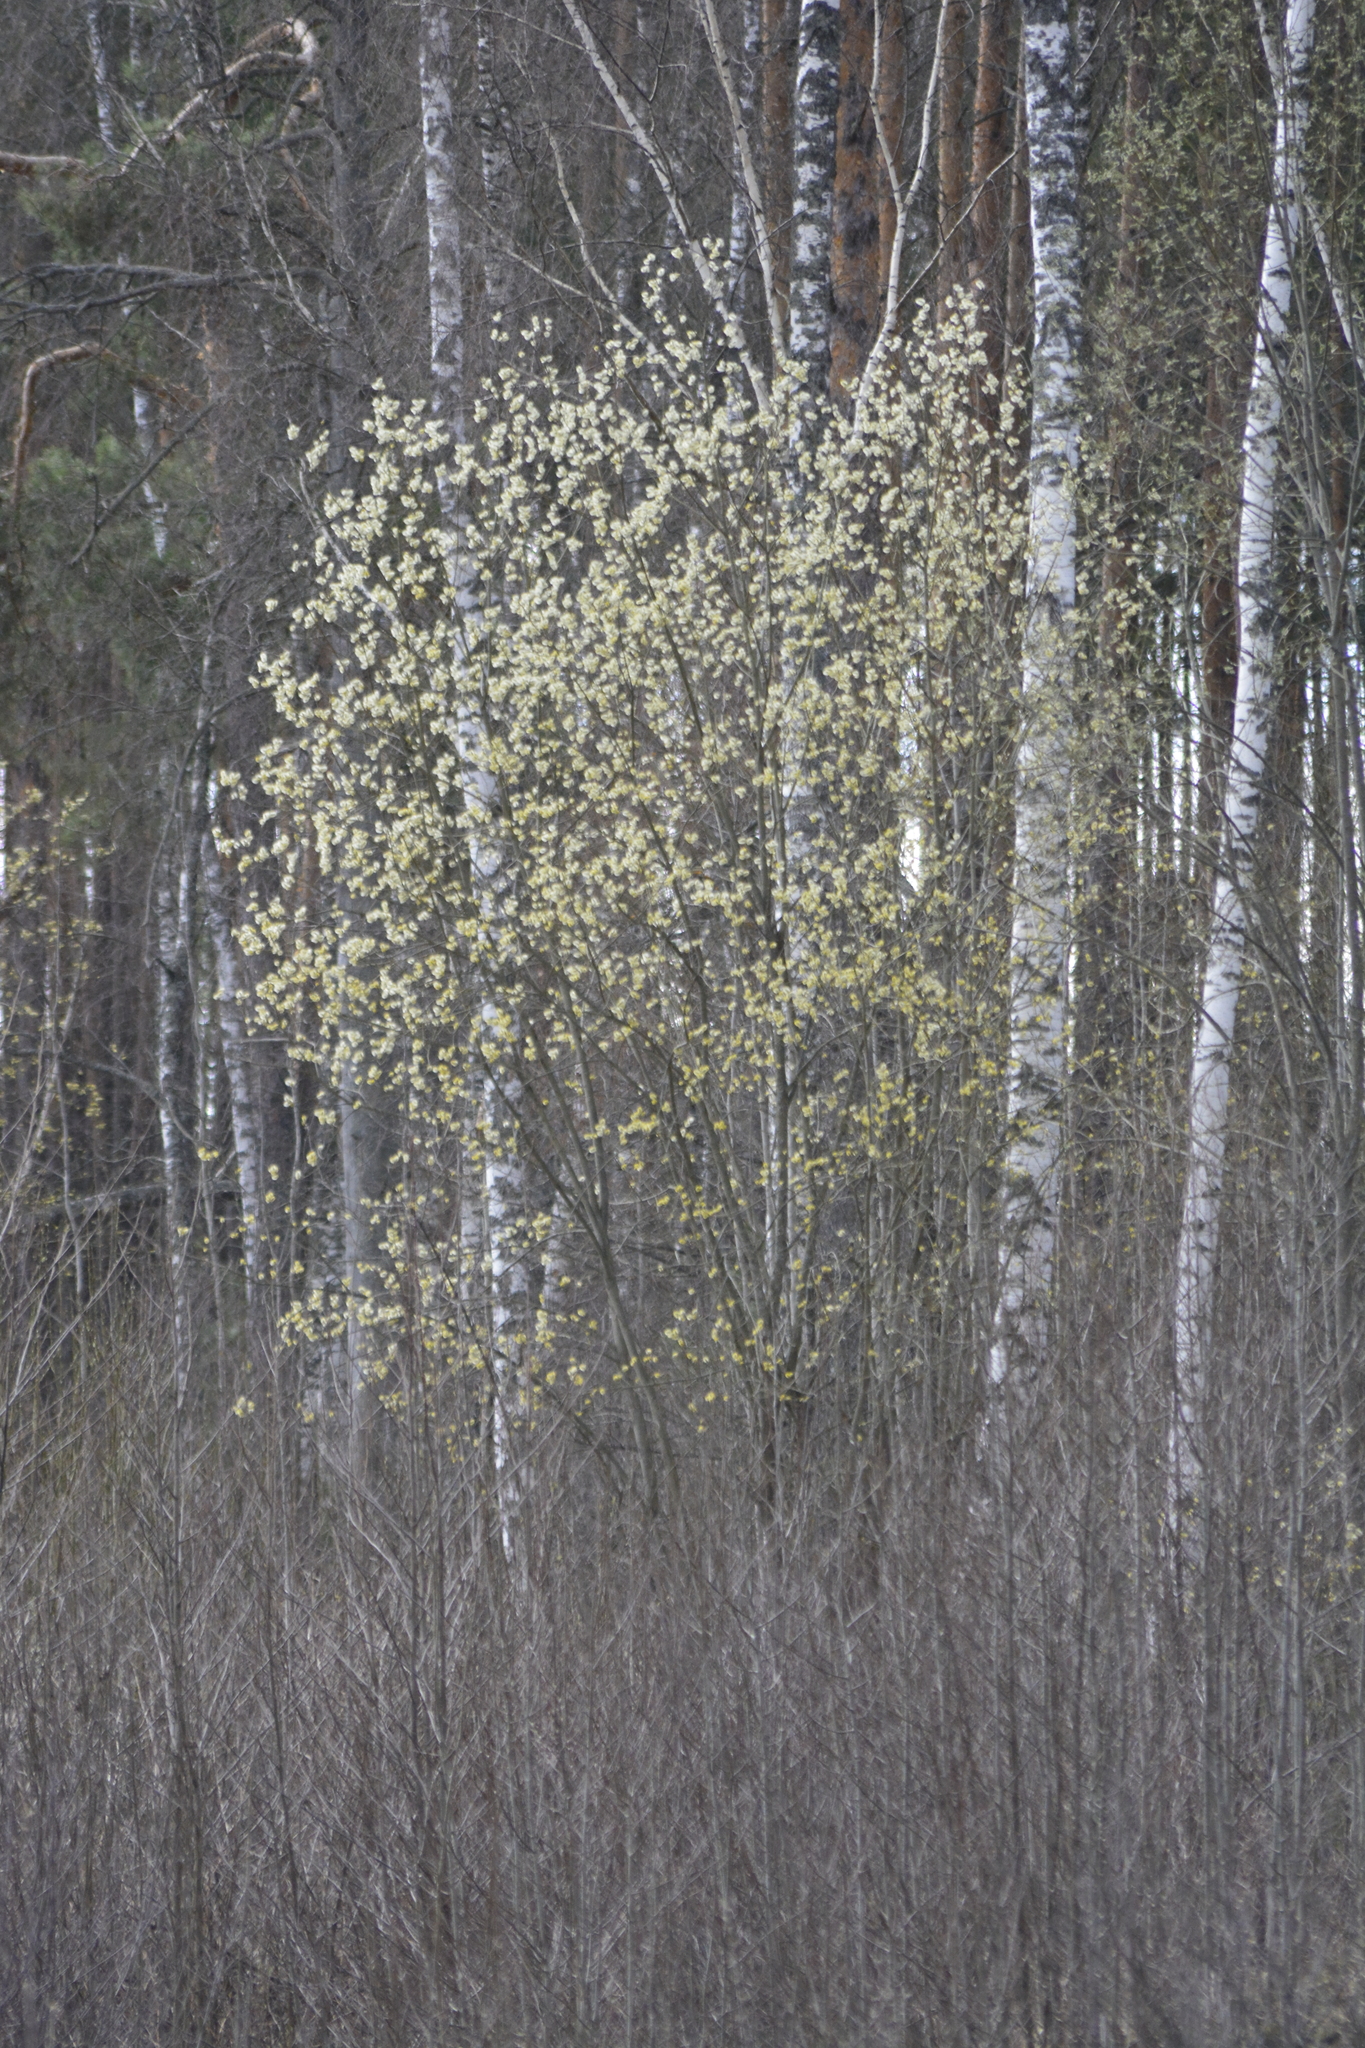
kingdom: Plantae
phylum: Tracheophyta
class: Magnoliopsida
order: Malpighiales
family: Salicaceae
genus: Salix
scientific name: Salix caprea
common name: Goat willow
